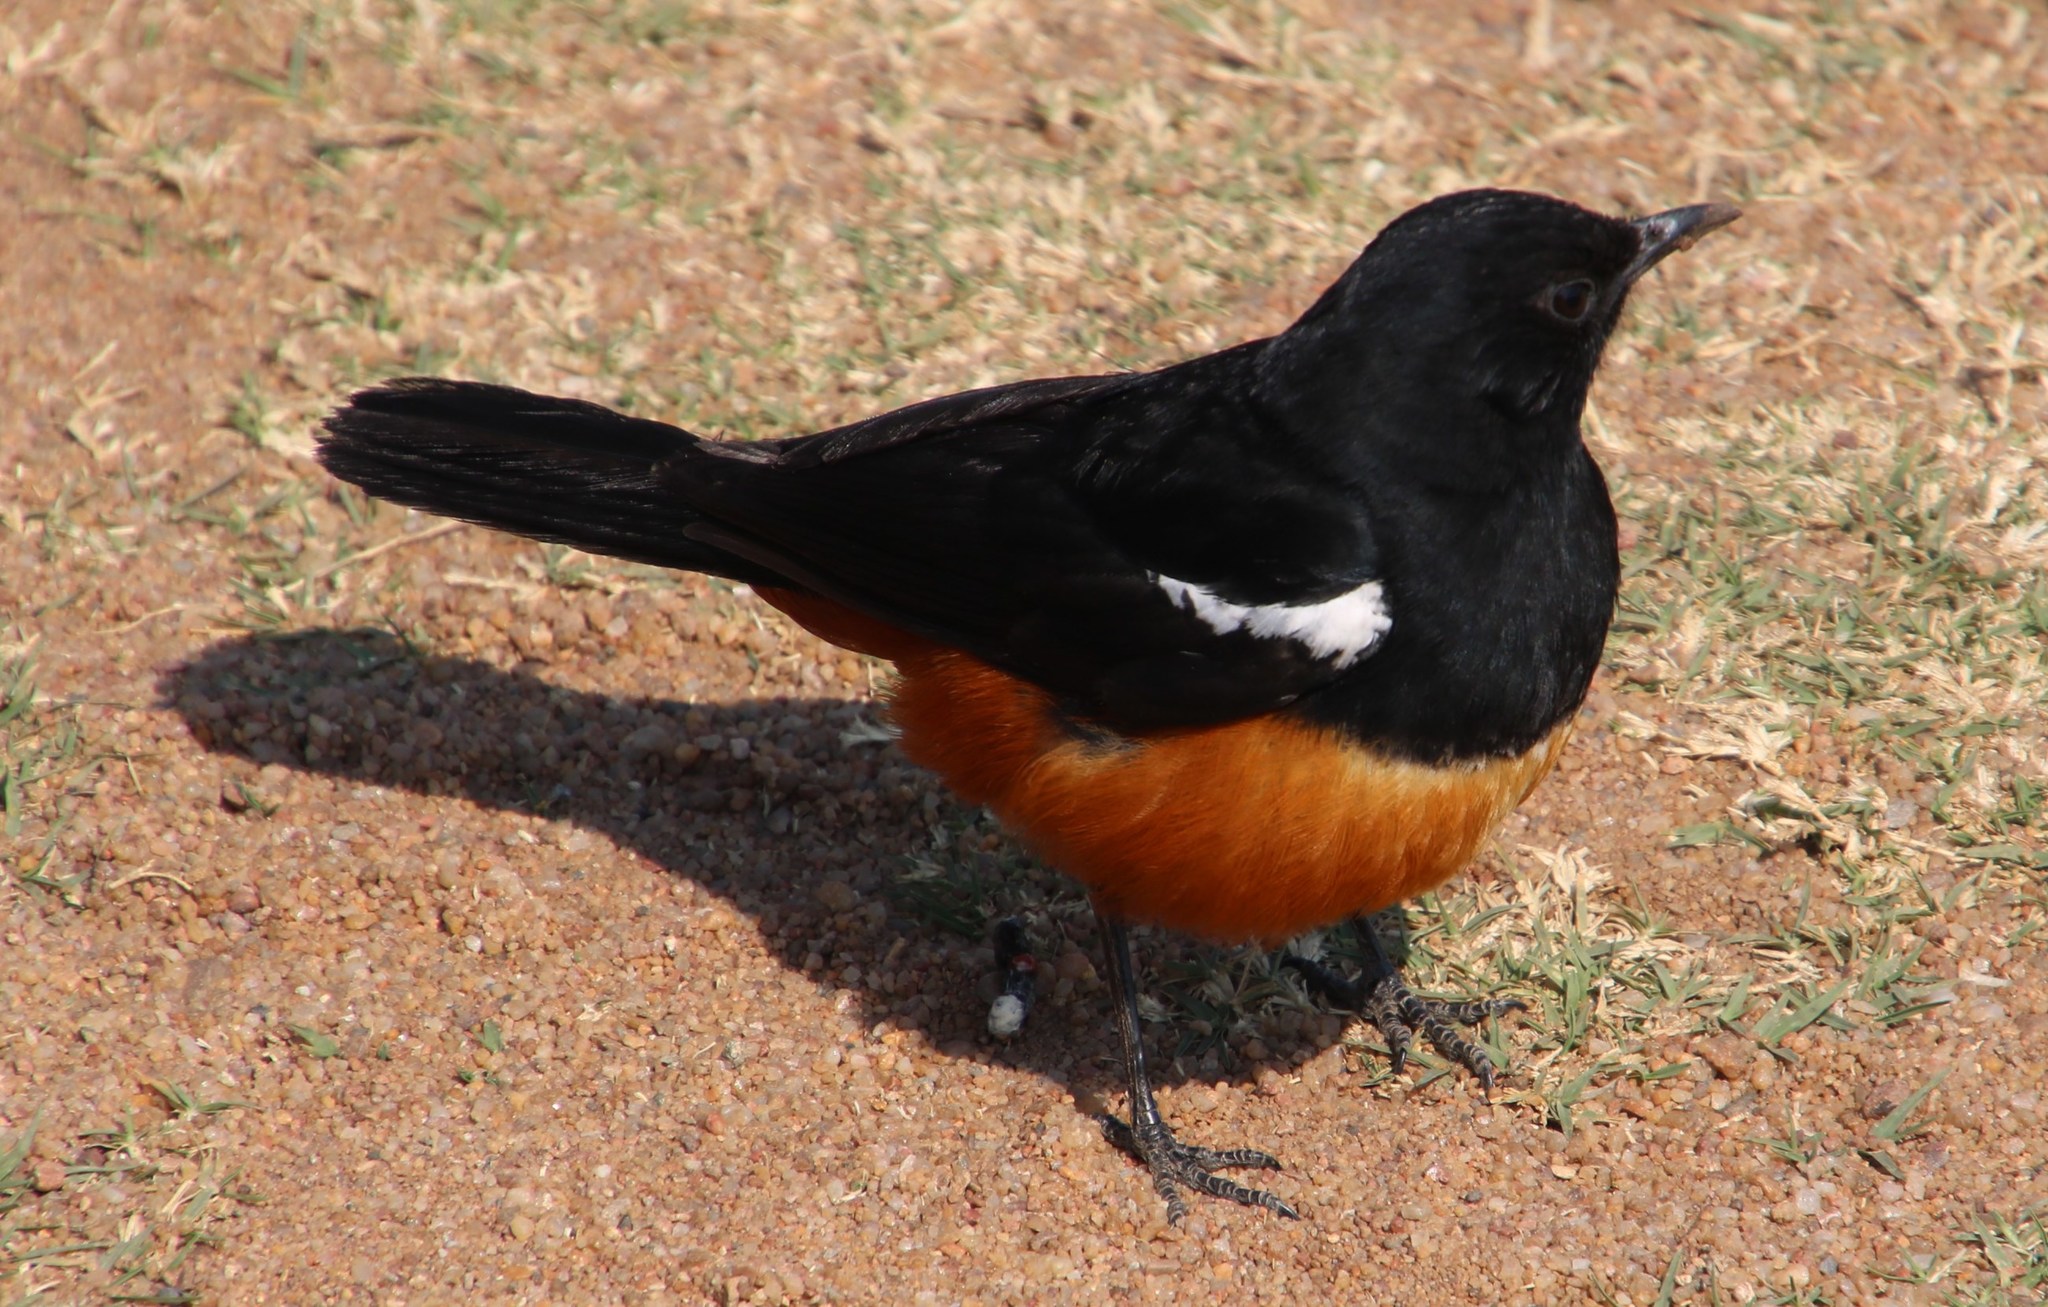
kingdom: Animalia
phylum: Chordata
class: Aves
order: Passeriformes
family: Muscicapidae
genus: Thamnolaea
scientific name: Thamnolaea cinnamomeiventris
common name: Mocking cliff chat
